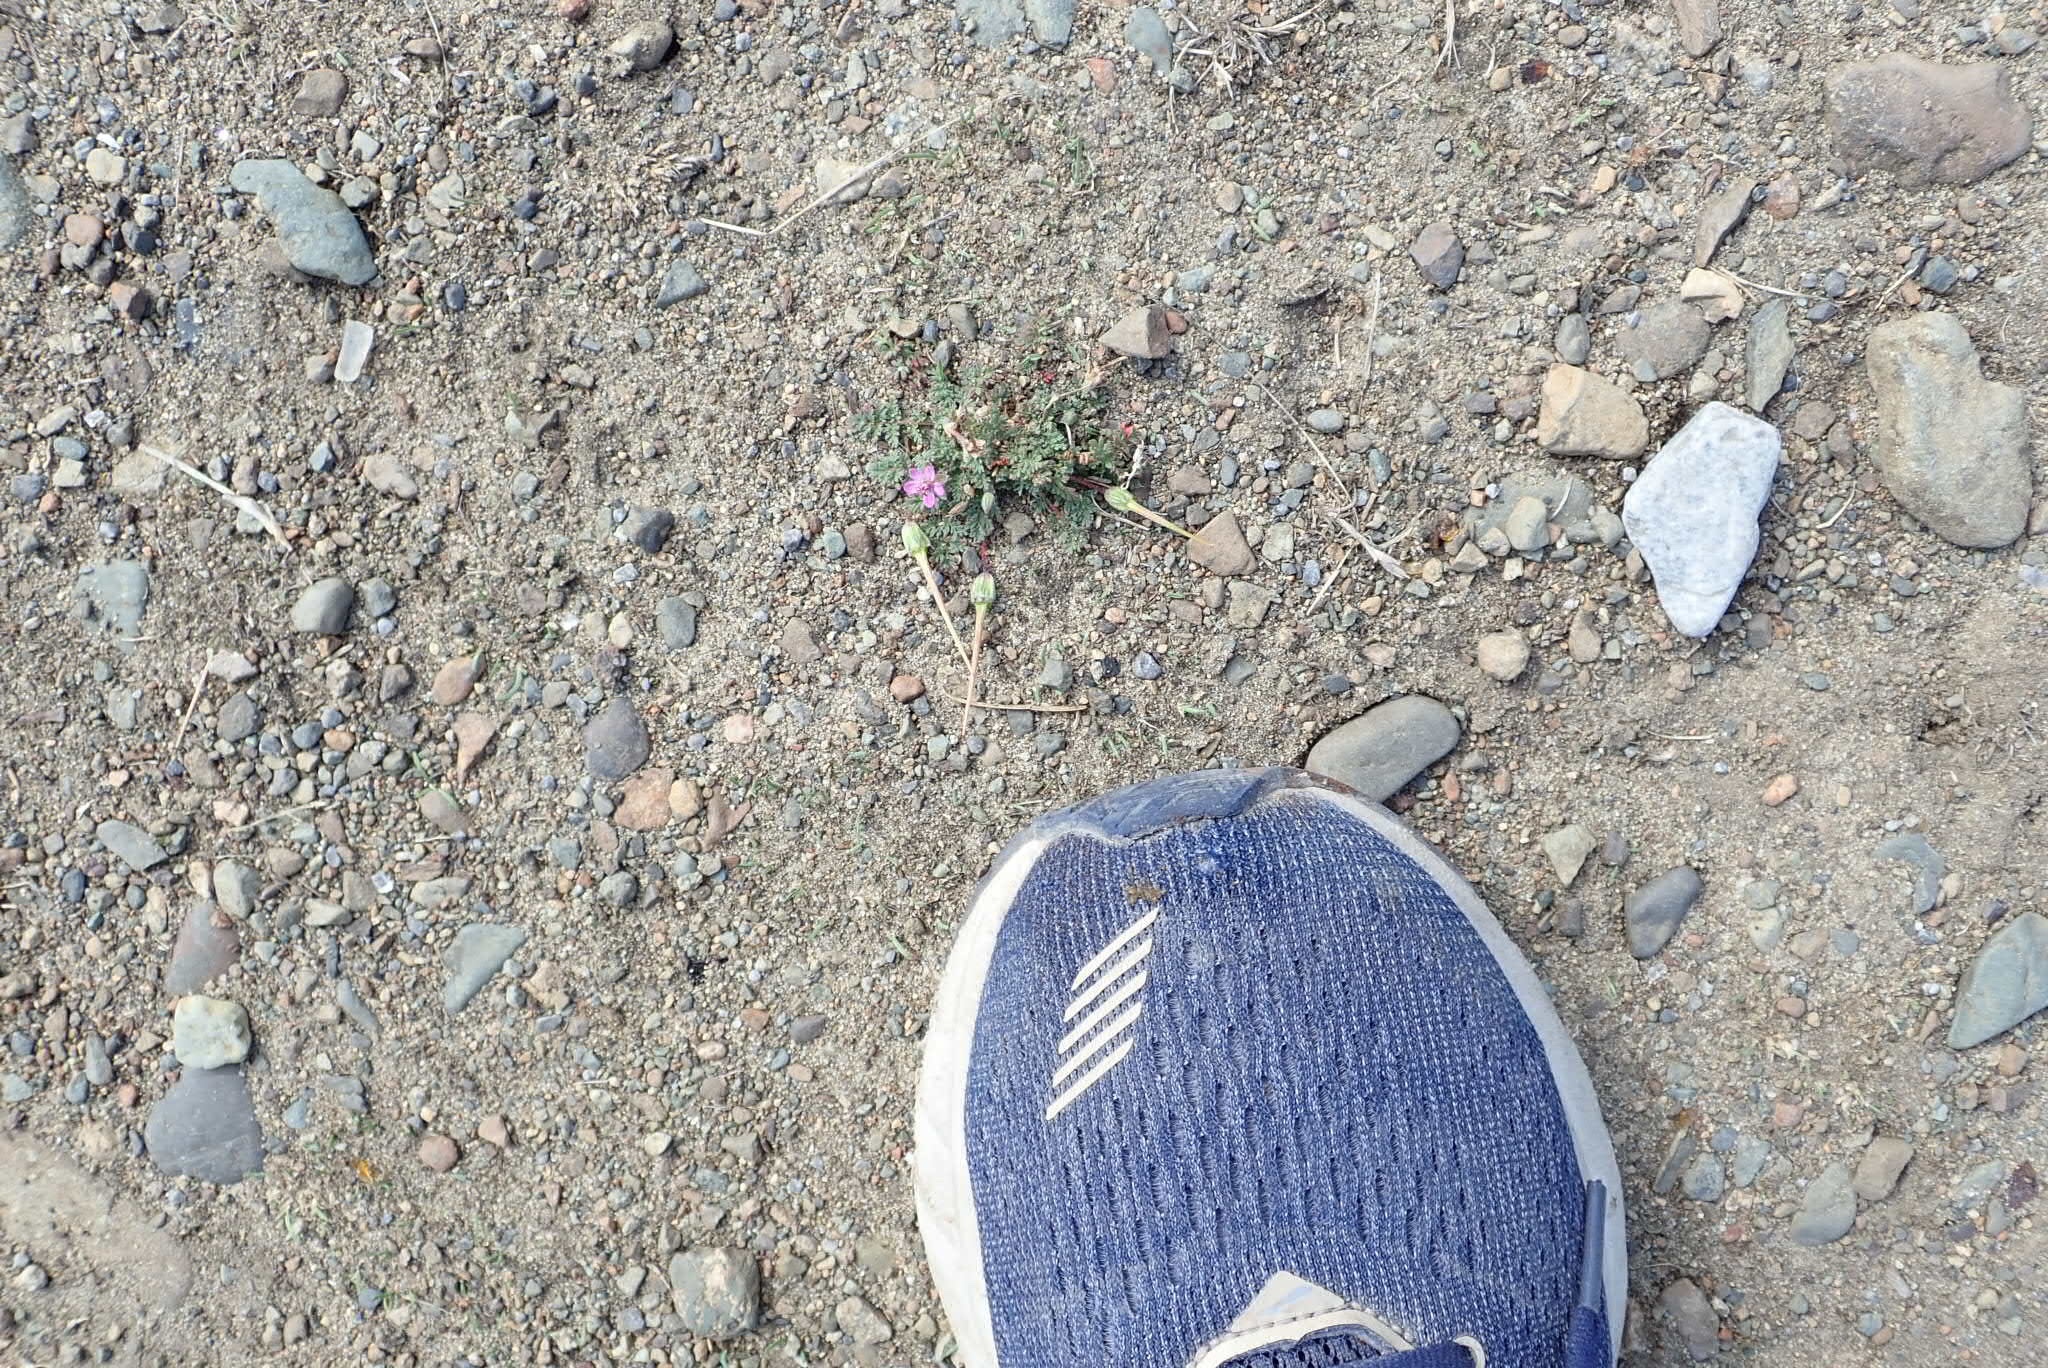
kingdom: Plantae
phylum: Tracheophyta
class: Magnoliopsida
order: Geraniales
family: Geraniaceae
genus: Erodium
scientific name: Erodium cicutarium
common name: Common stork's-bill
